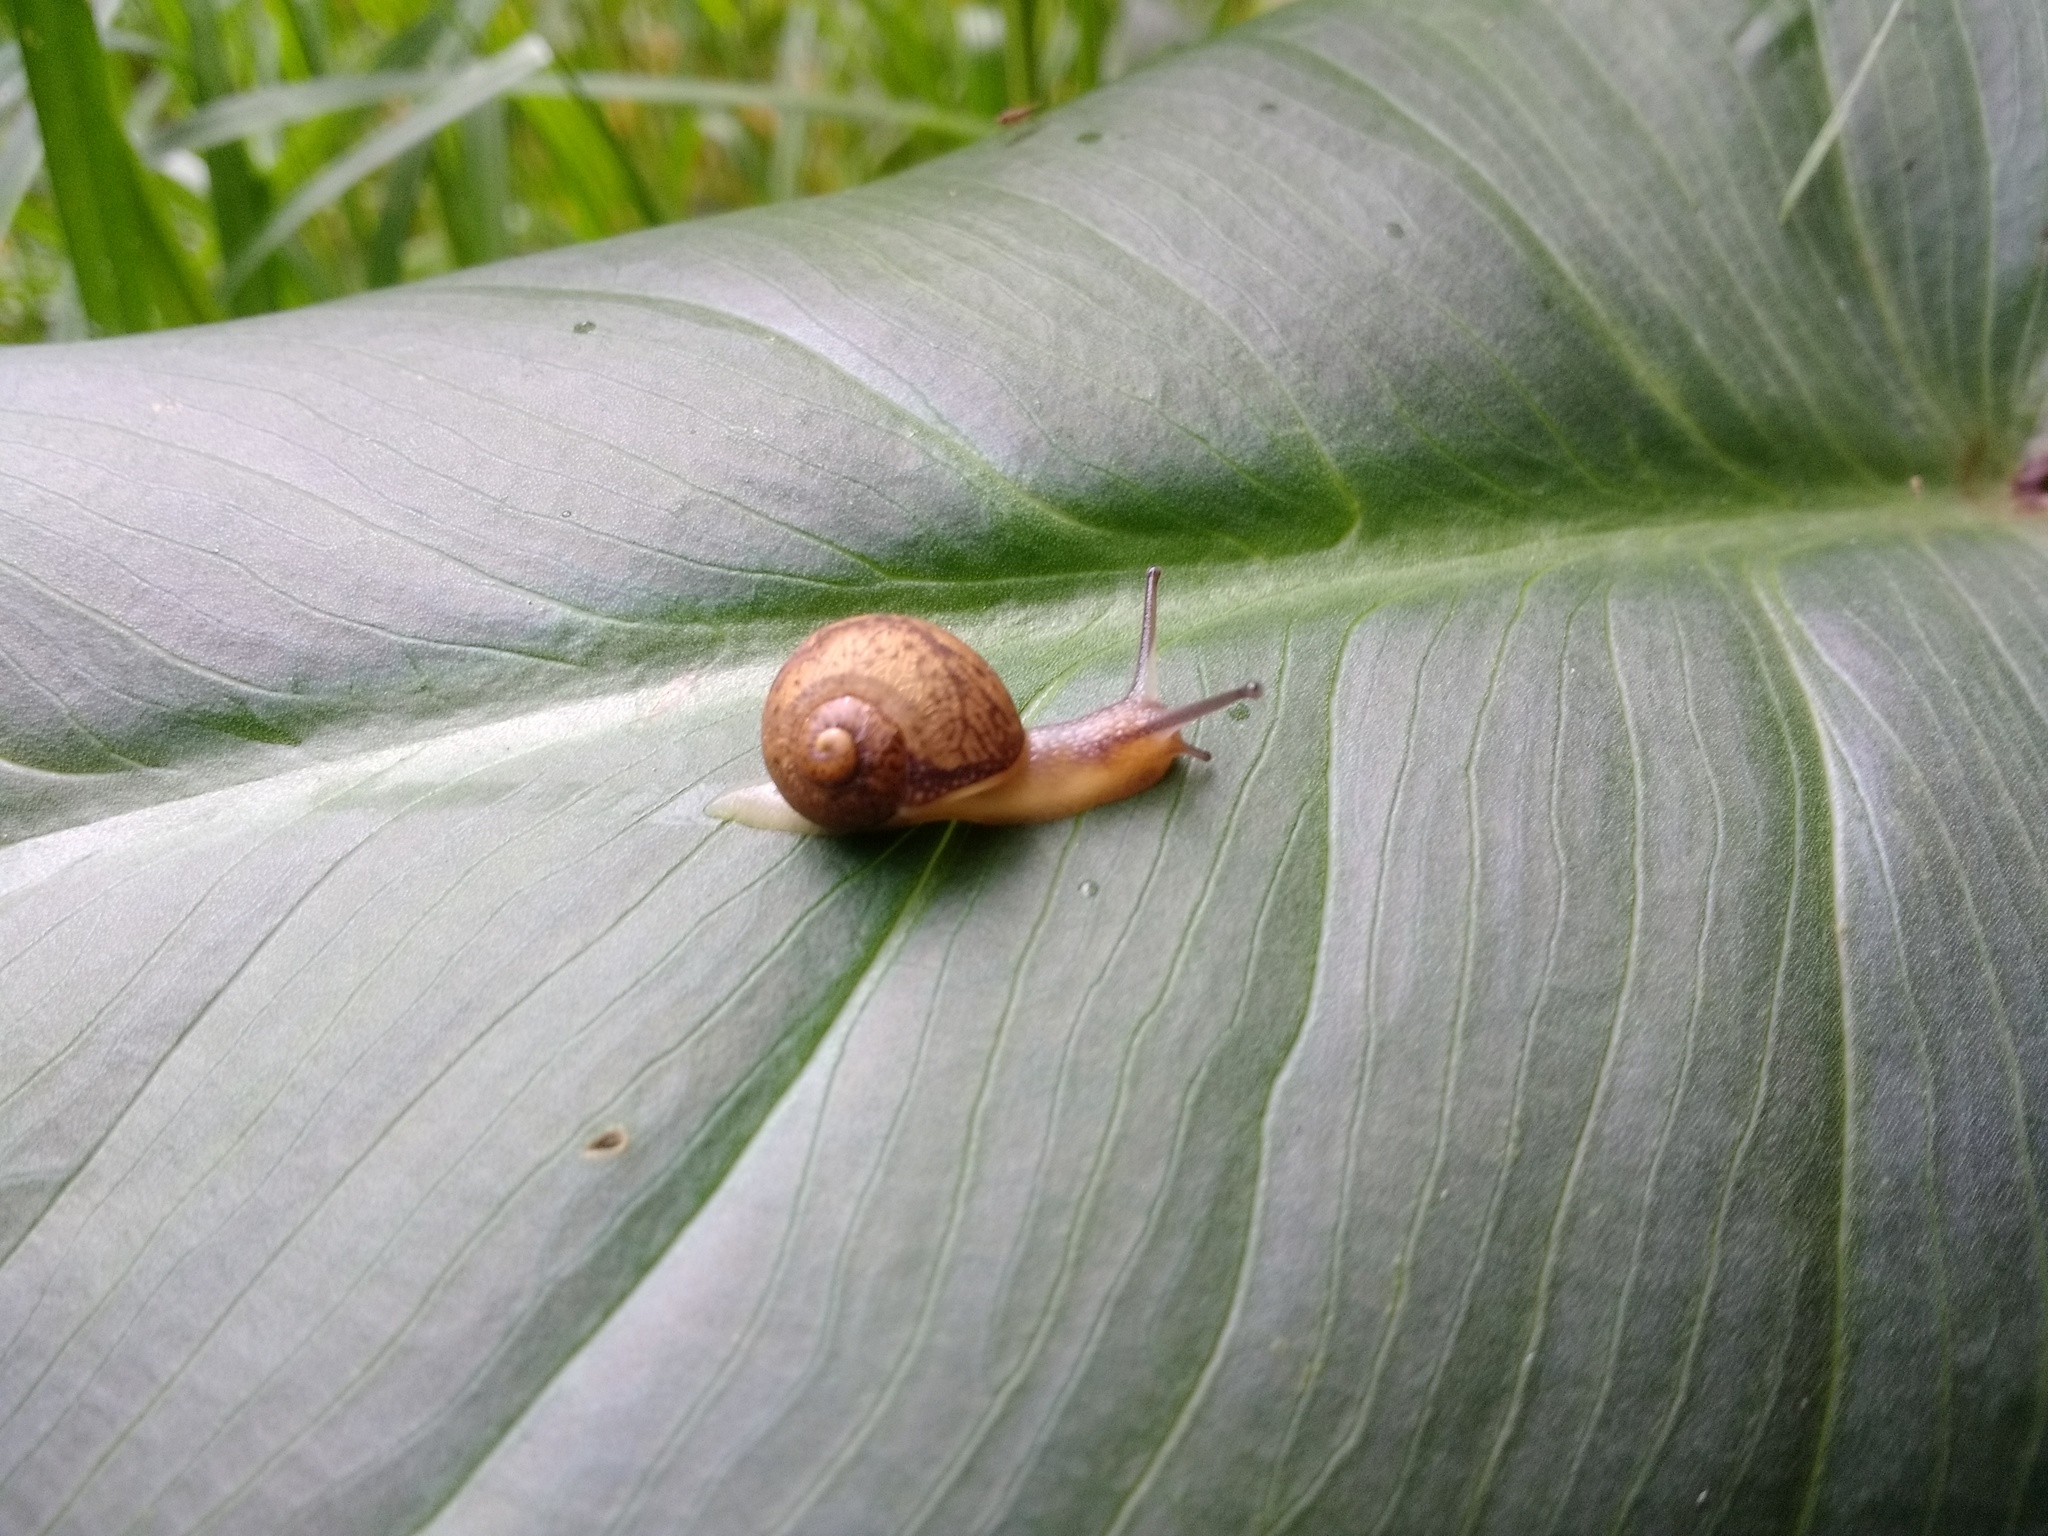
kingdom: Animalia
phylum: Mollusca
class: Gastropoda
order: Stylommatophora
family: Helicidae
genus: Cornu
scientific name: Cornu aspersum
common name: Brown garden snail
